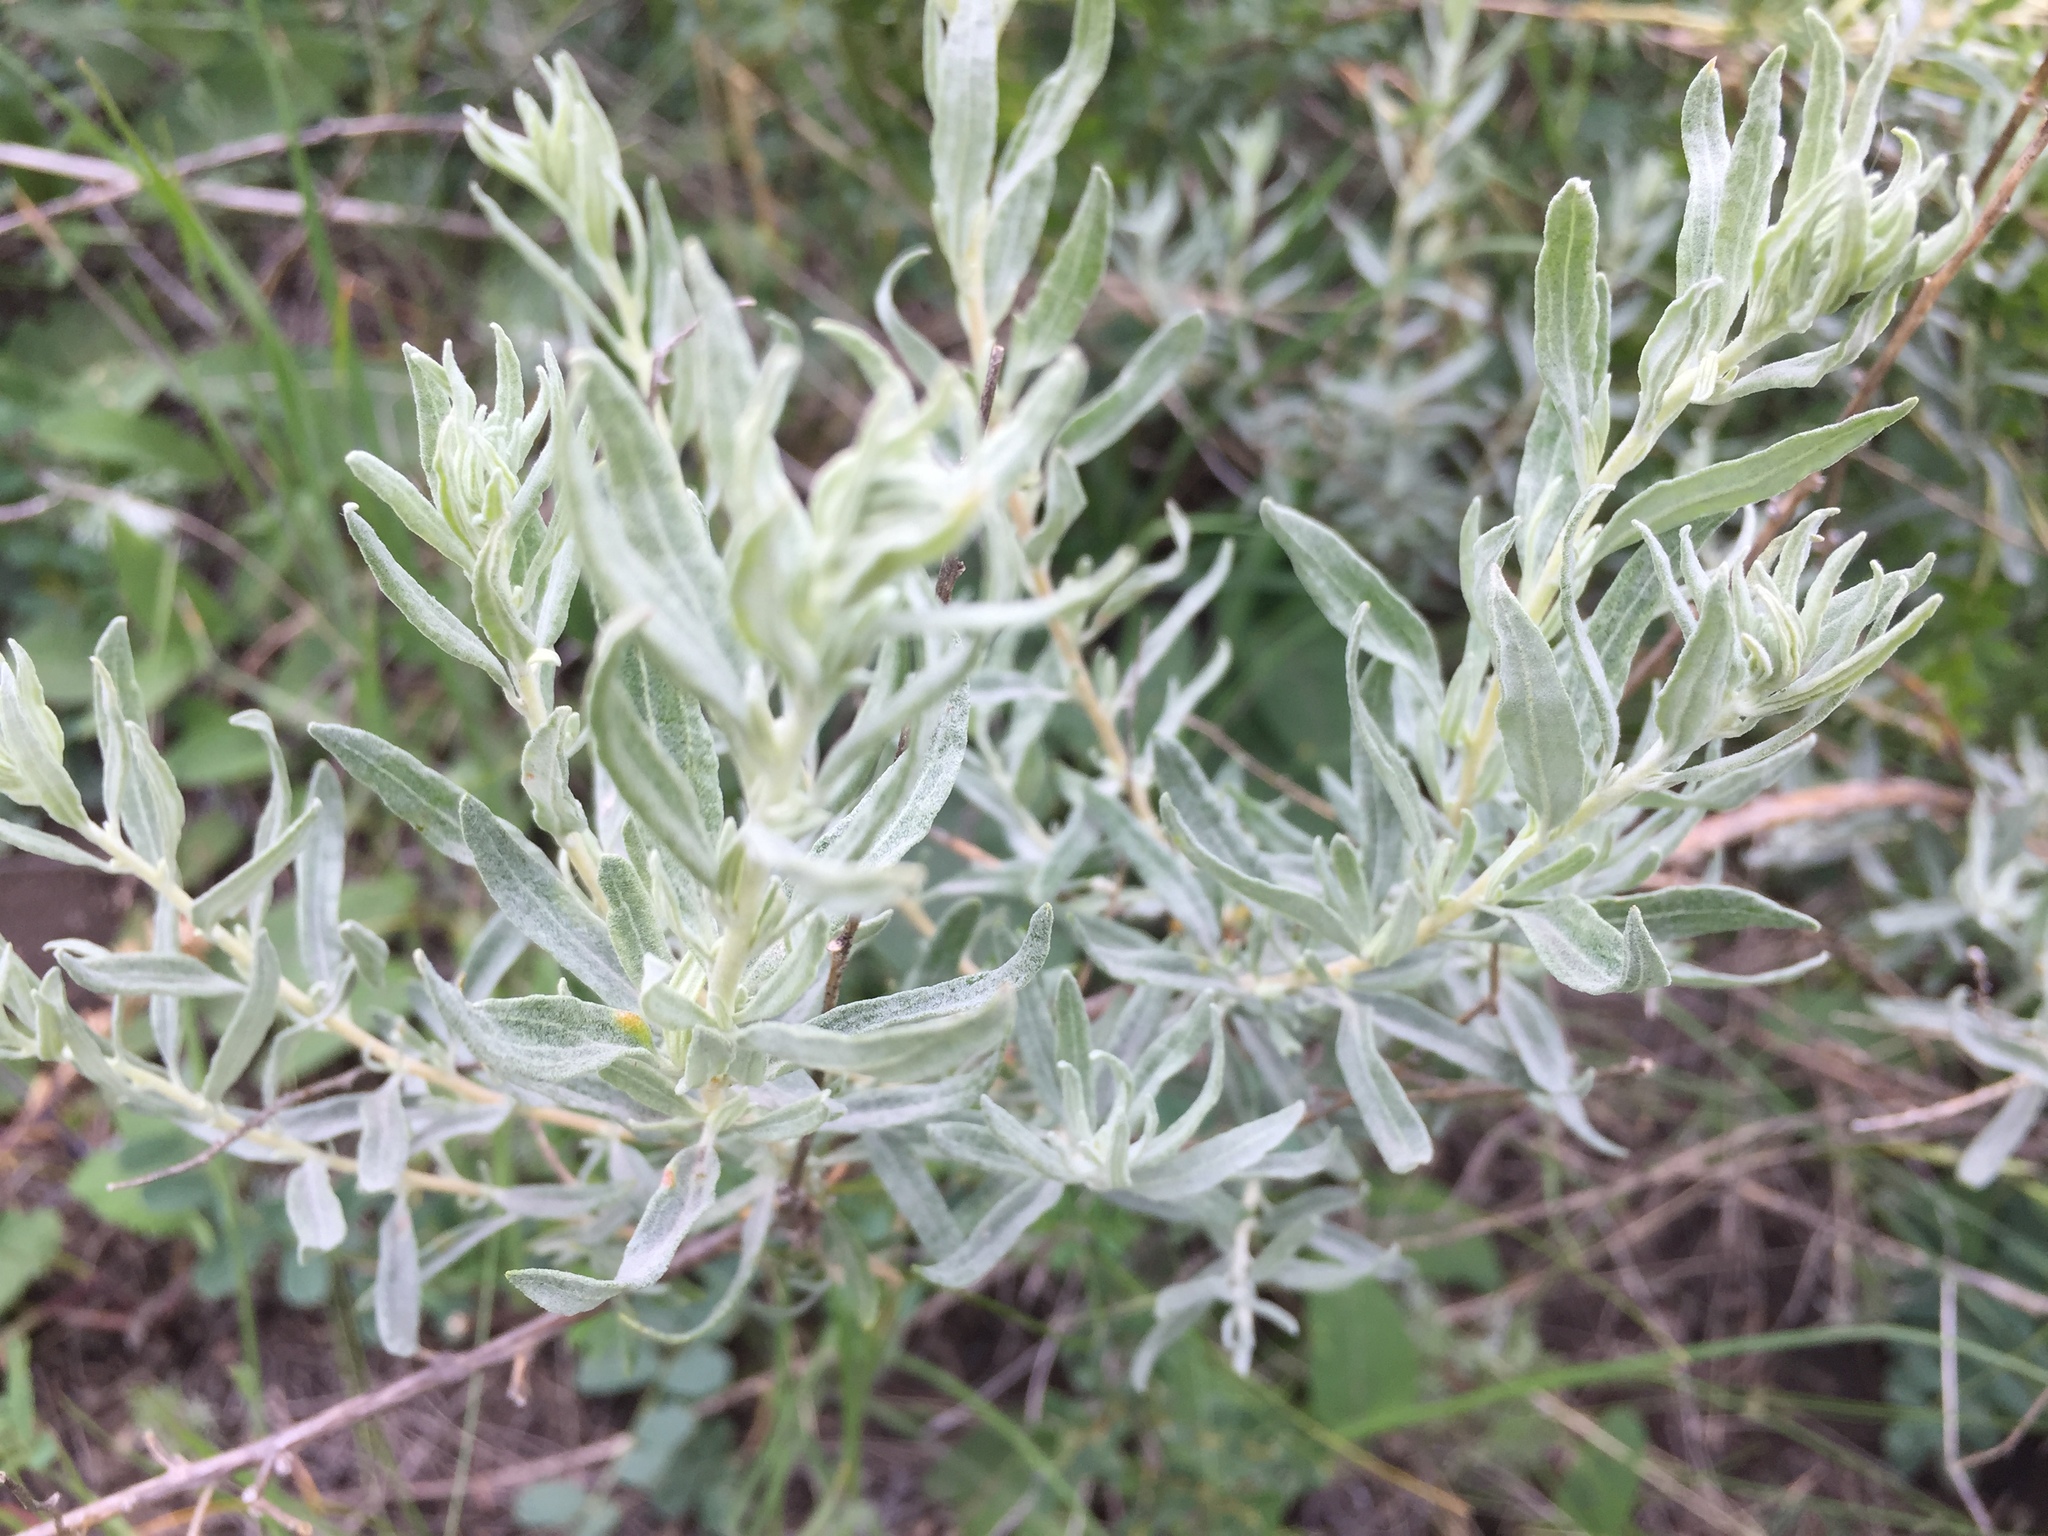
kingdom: Plantae
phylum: Tracheophyta
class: Magnoliopsida
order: Caryophyllales
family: Amaranthaceae
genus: Krascheninnikovia
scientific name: Krascheninnikovia ceratoides
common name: Pamirian winterfat
